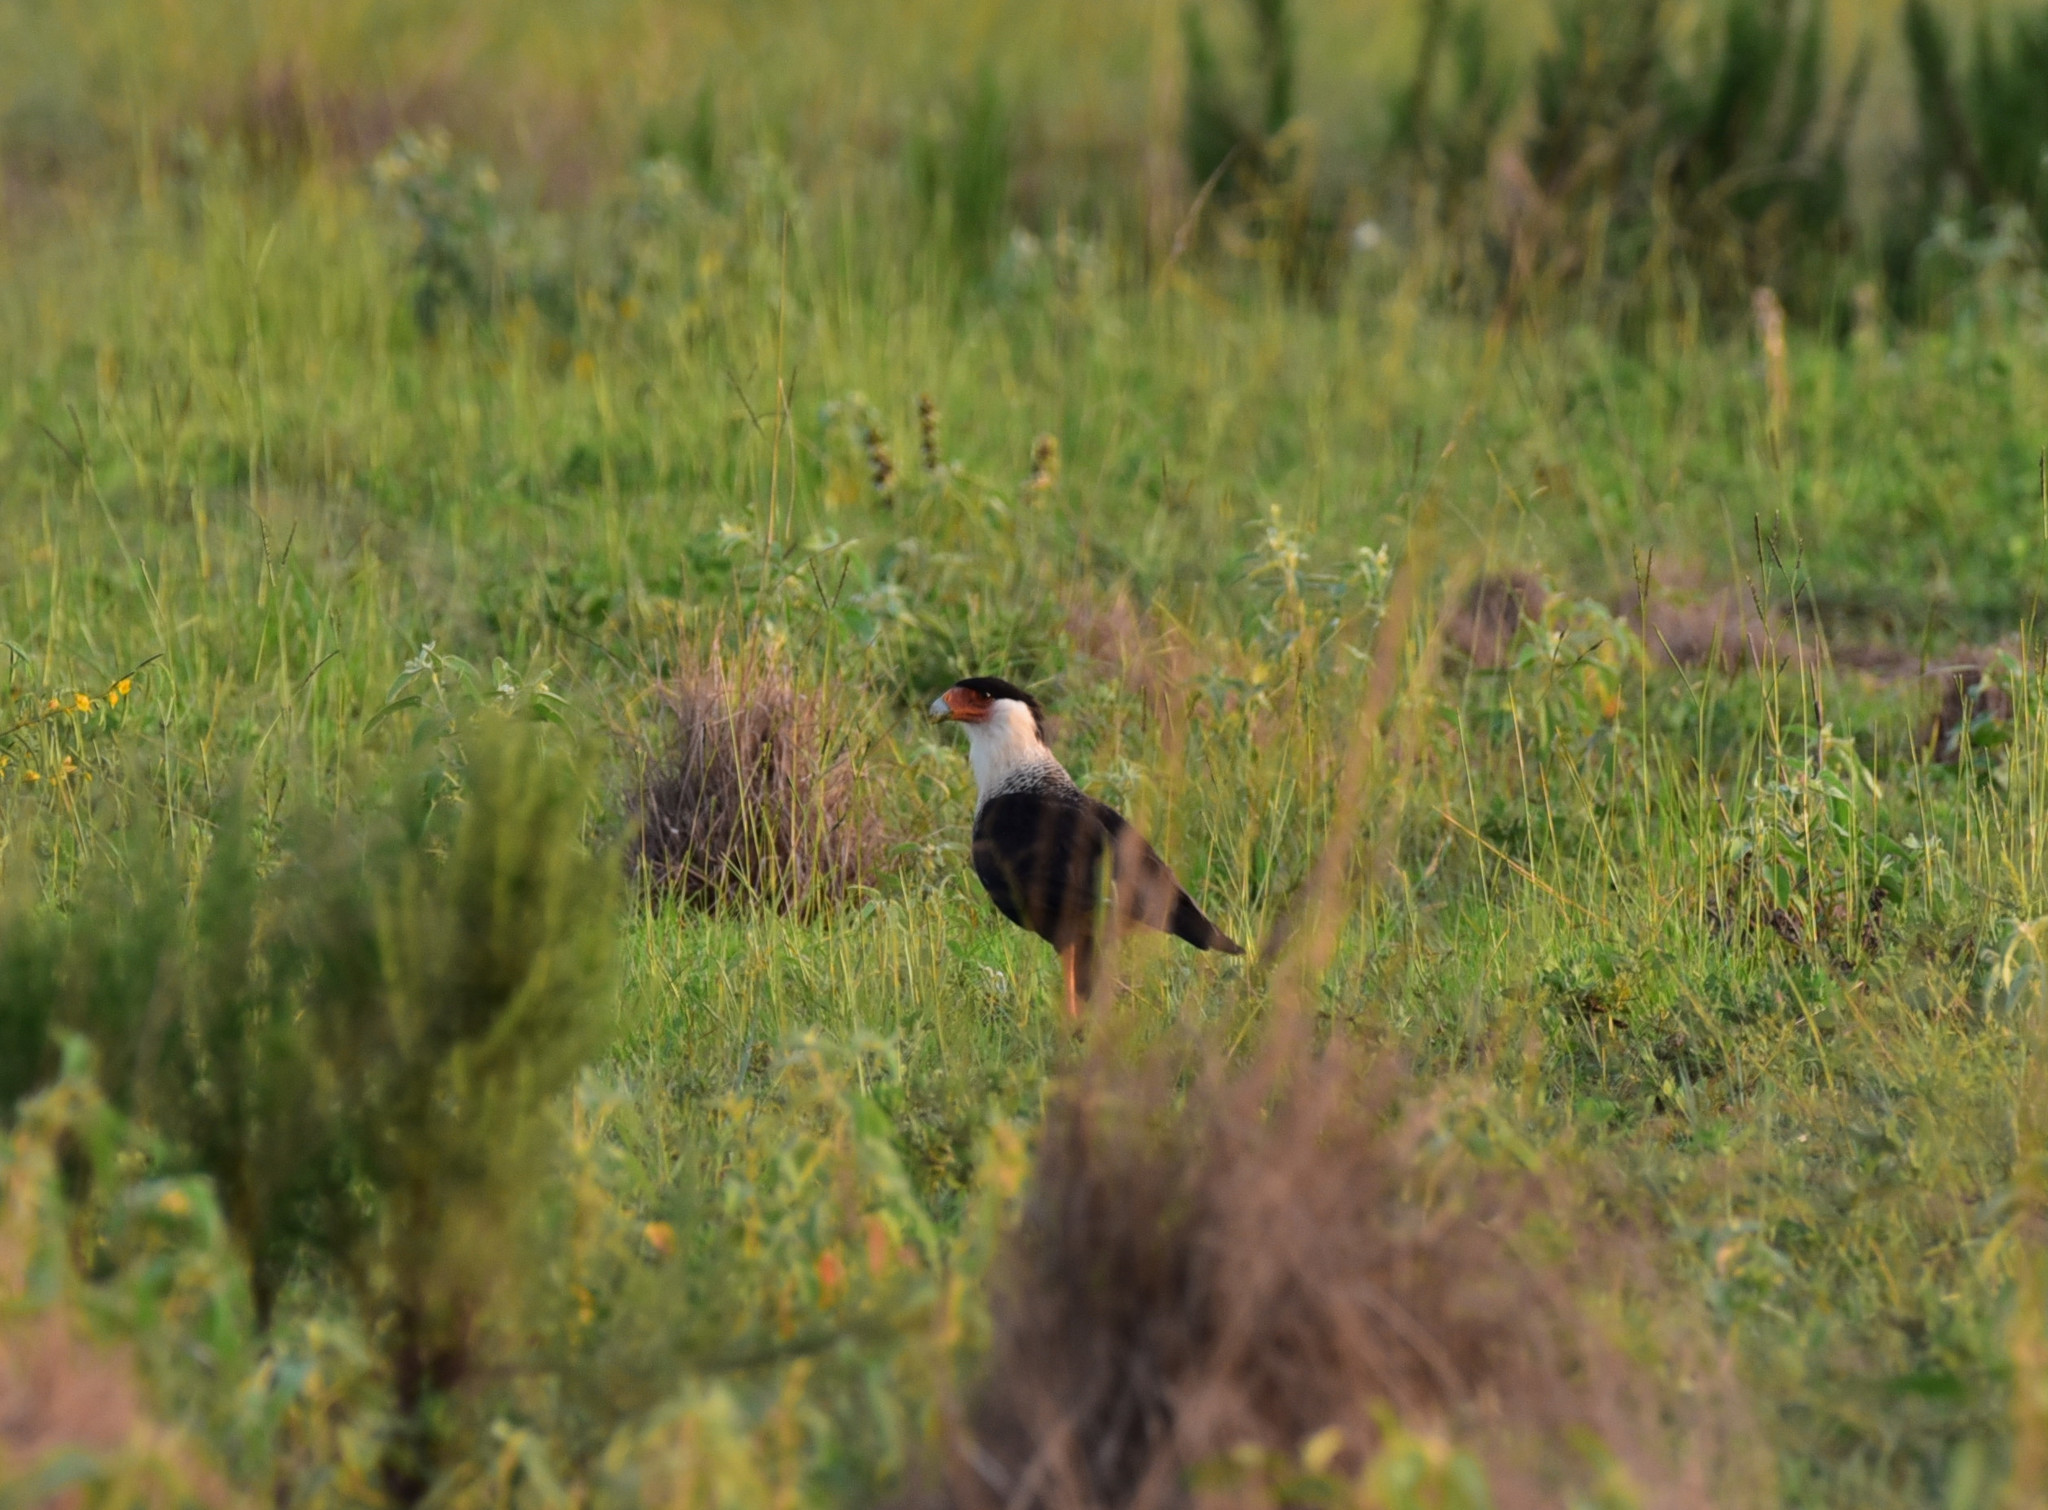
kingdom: Animalia
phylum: Chordata
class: Aves
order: Falconiformes
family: Falconidae
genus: Caracara
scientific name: Caracara plancus
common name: Southern caracara
